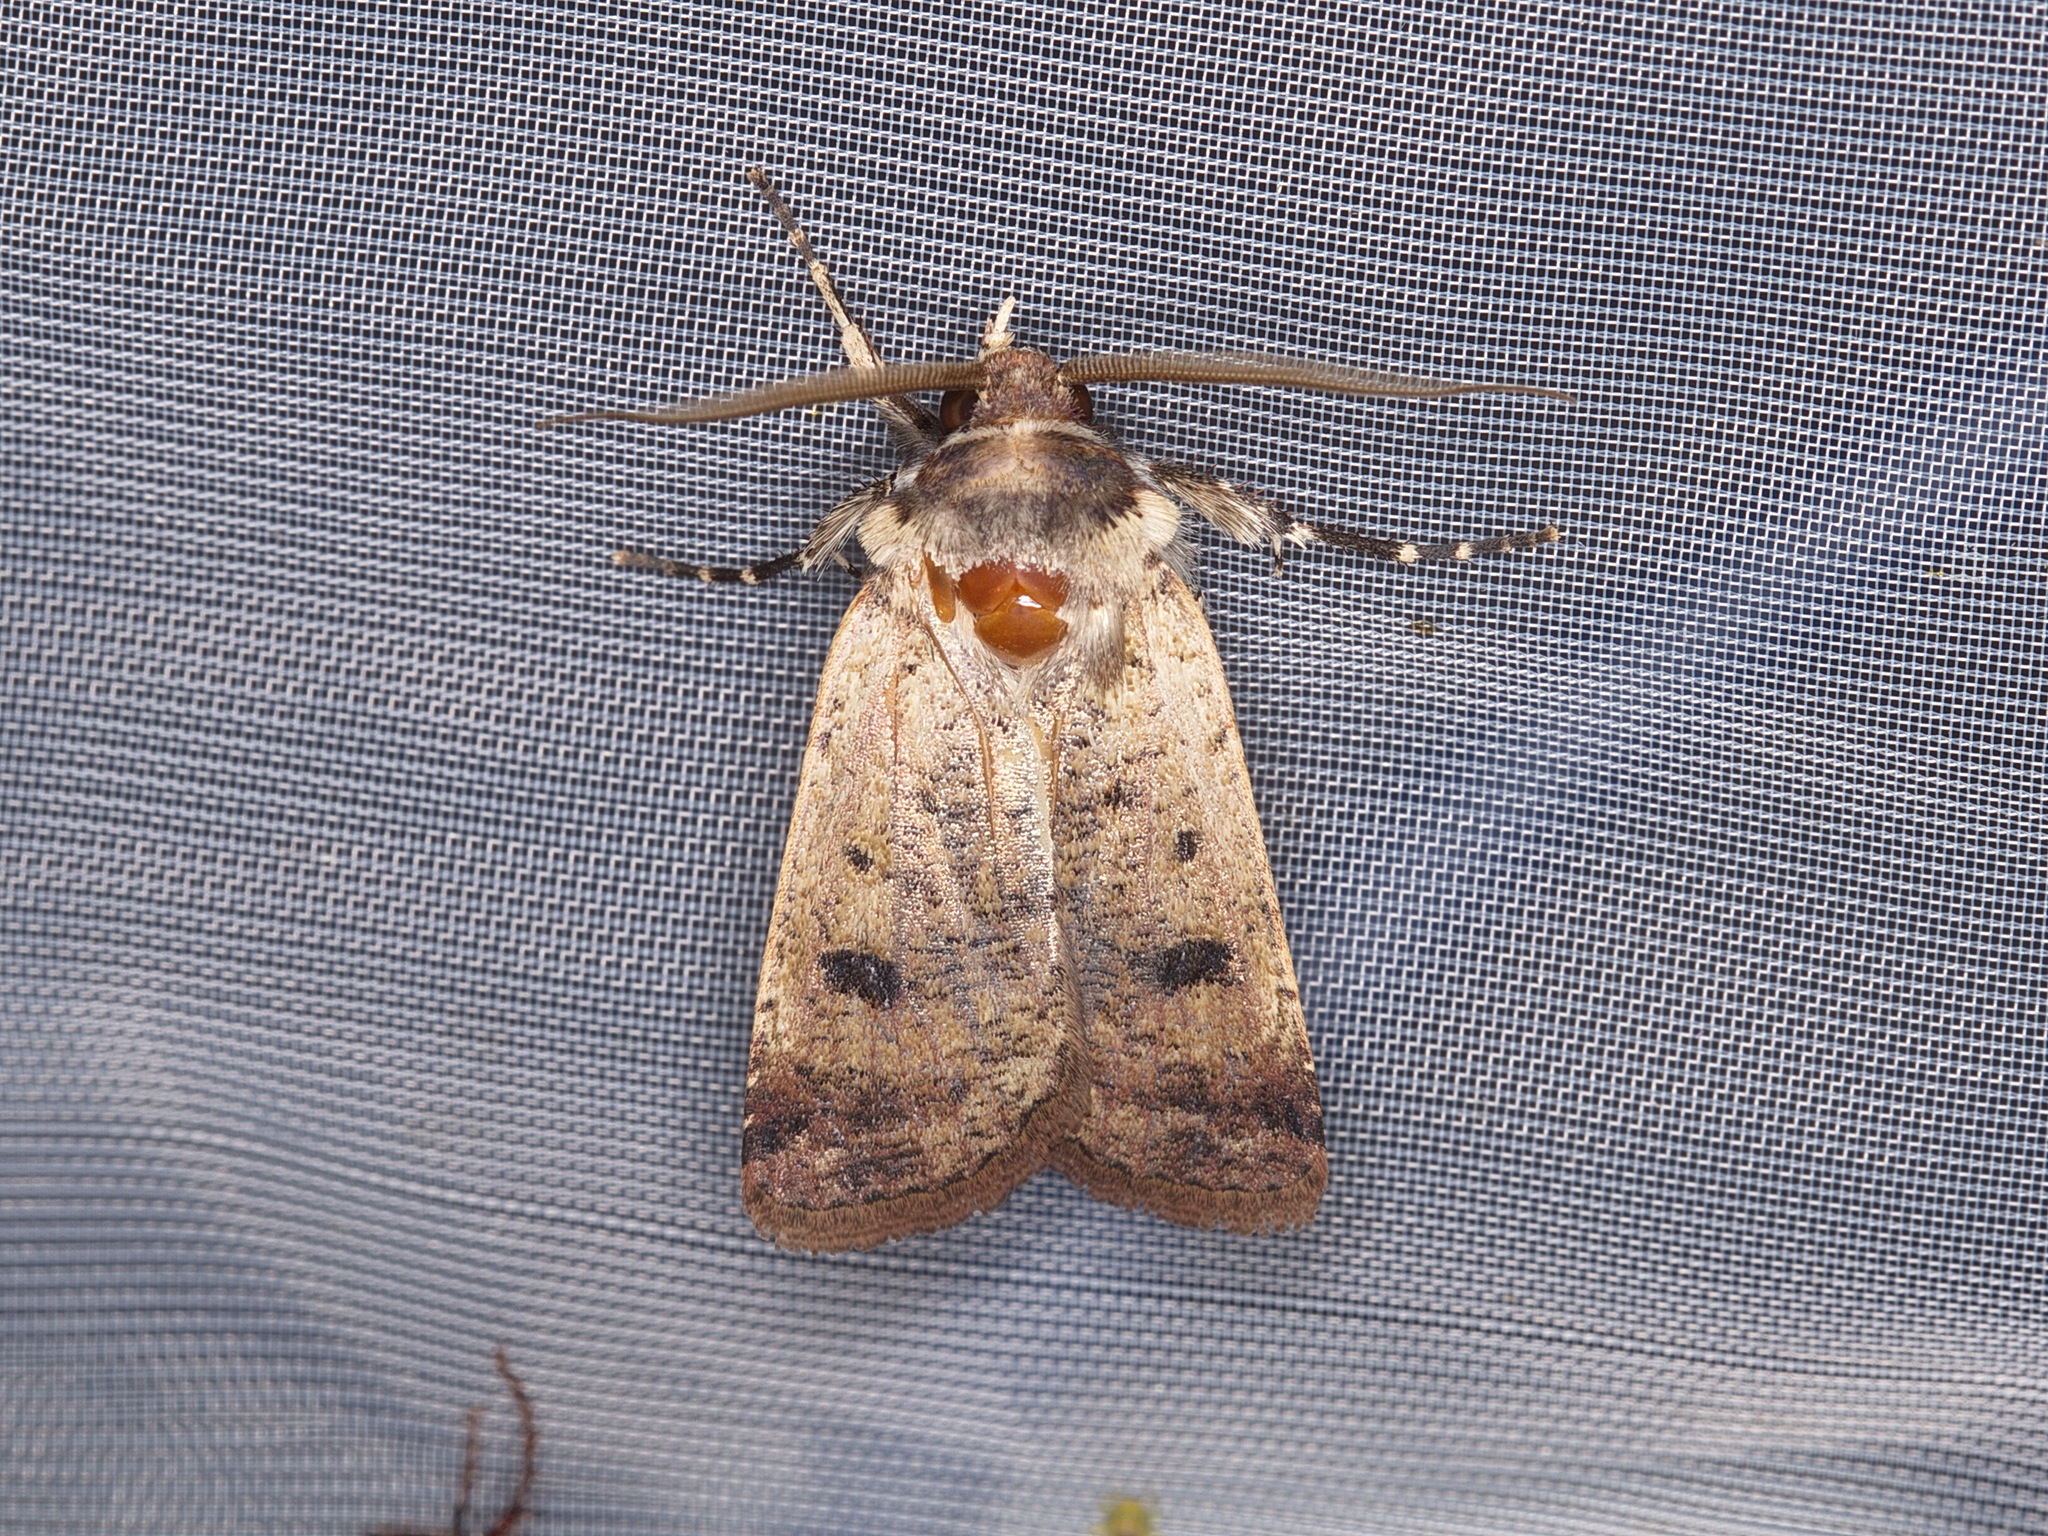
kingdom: Animalia
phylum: Arthropoda
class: Insecta
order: Lepidoptera
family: Noctuidae
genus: Agrotis
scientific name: Agrotis porphyricollis
